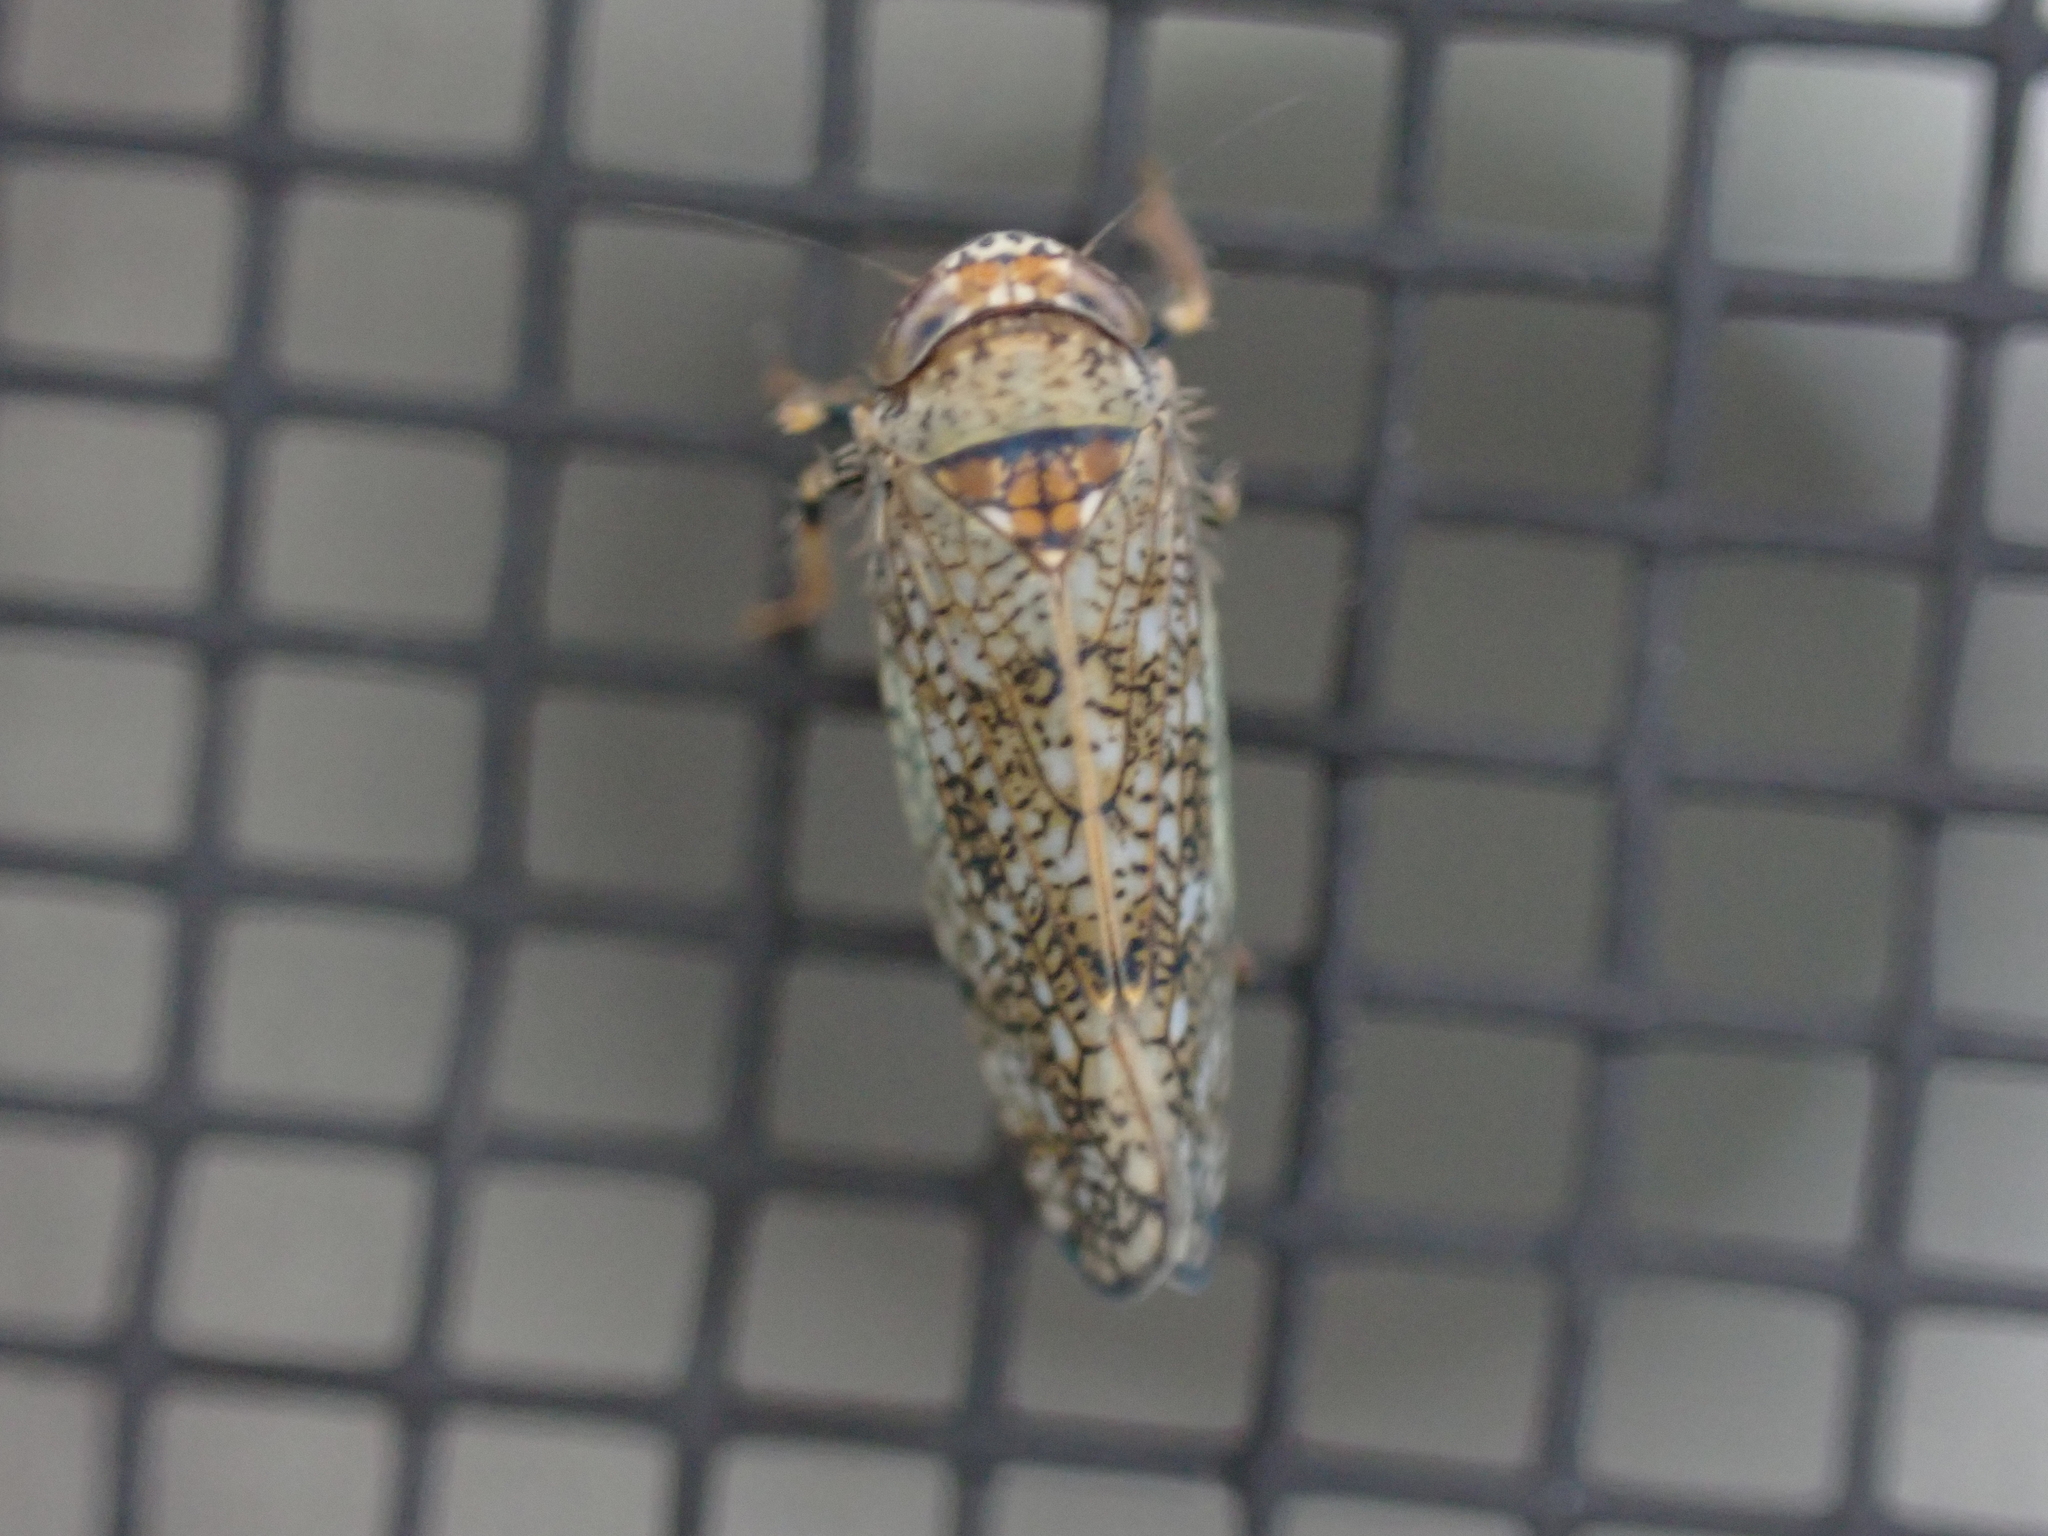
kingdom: Animalia
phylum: Arthropoda
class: Insecta
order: Hemiptera
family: Cicadellidae
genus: Orientus
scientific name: Orientus ishidae
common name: Japanese leafhopper
